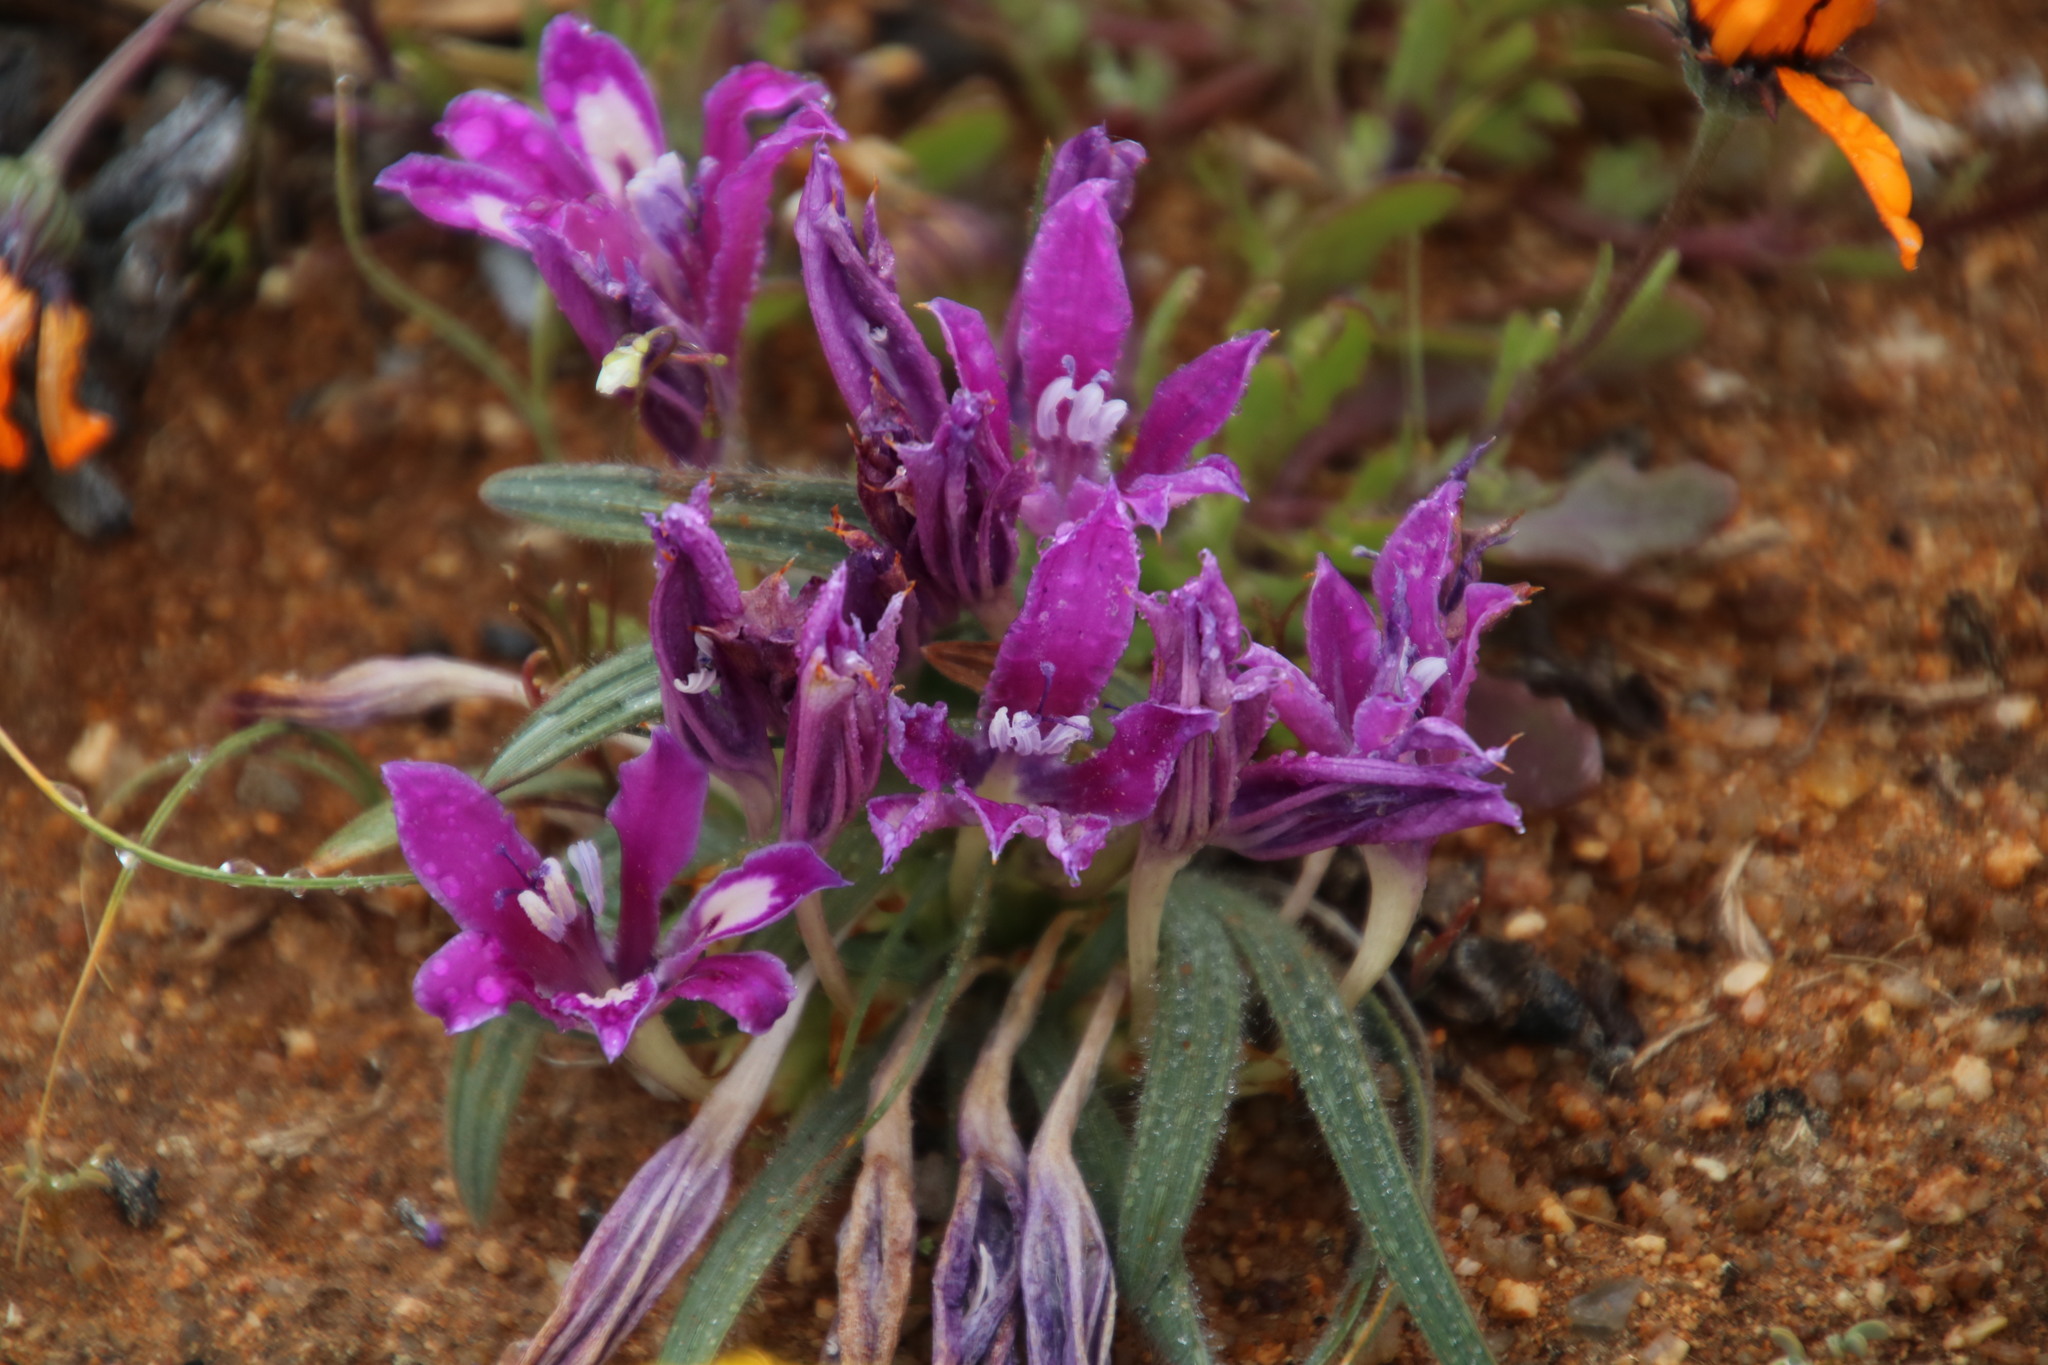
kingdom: Plantae
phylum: Tracheophyta
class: Liliopsida
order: Asparagales
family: Iridaceae
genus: Babiana
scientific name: Babiana curviscapa
